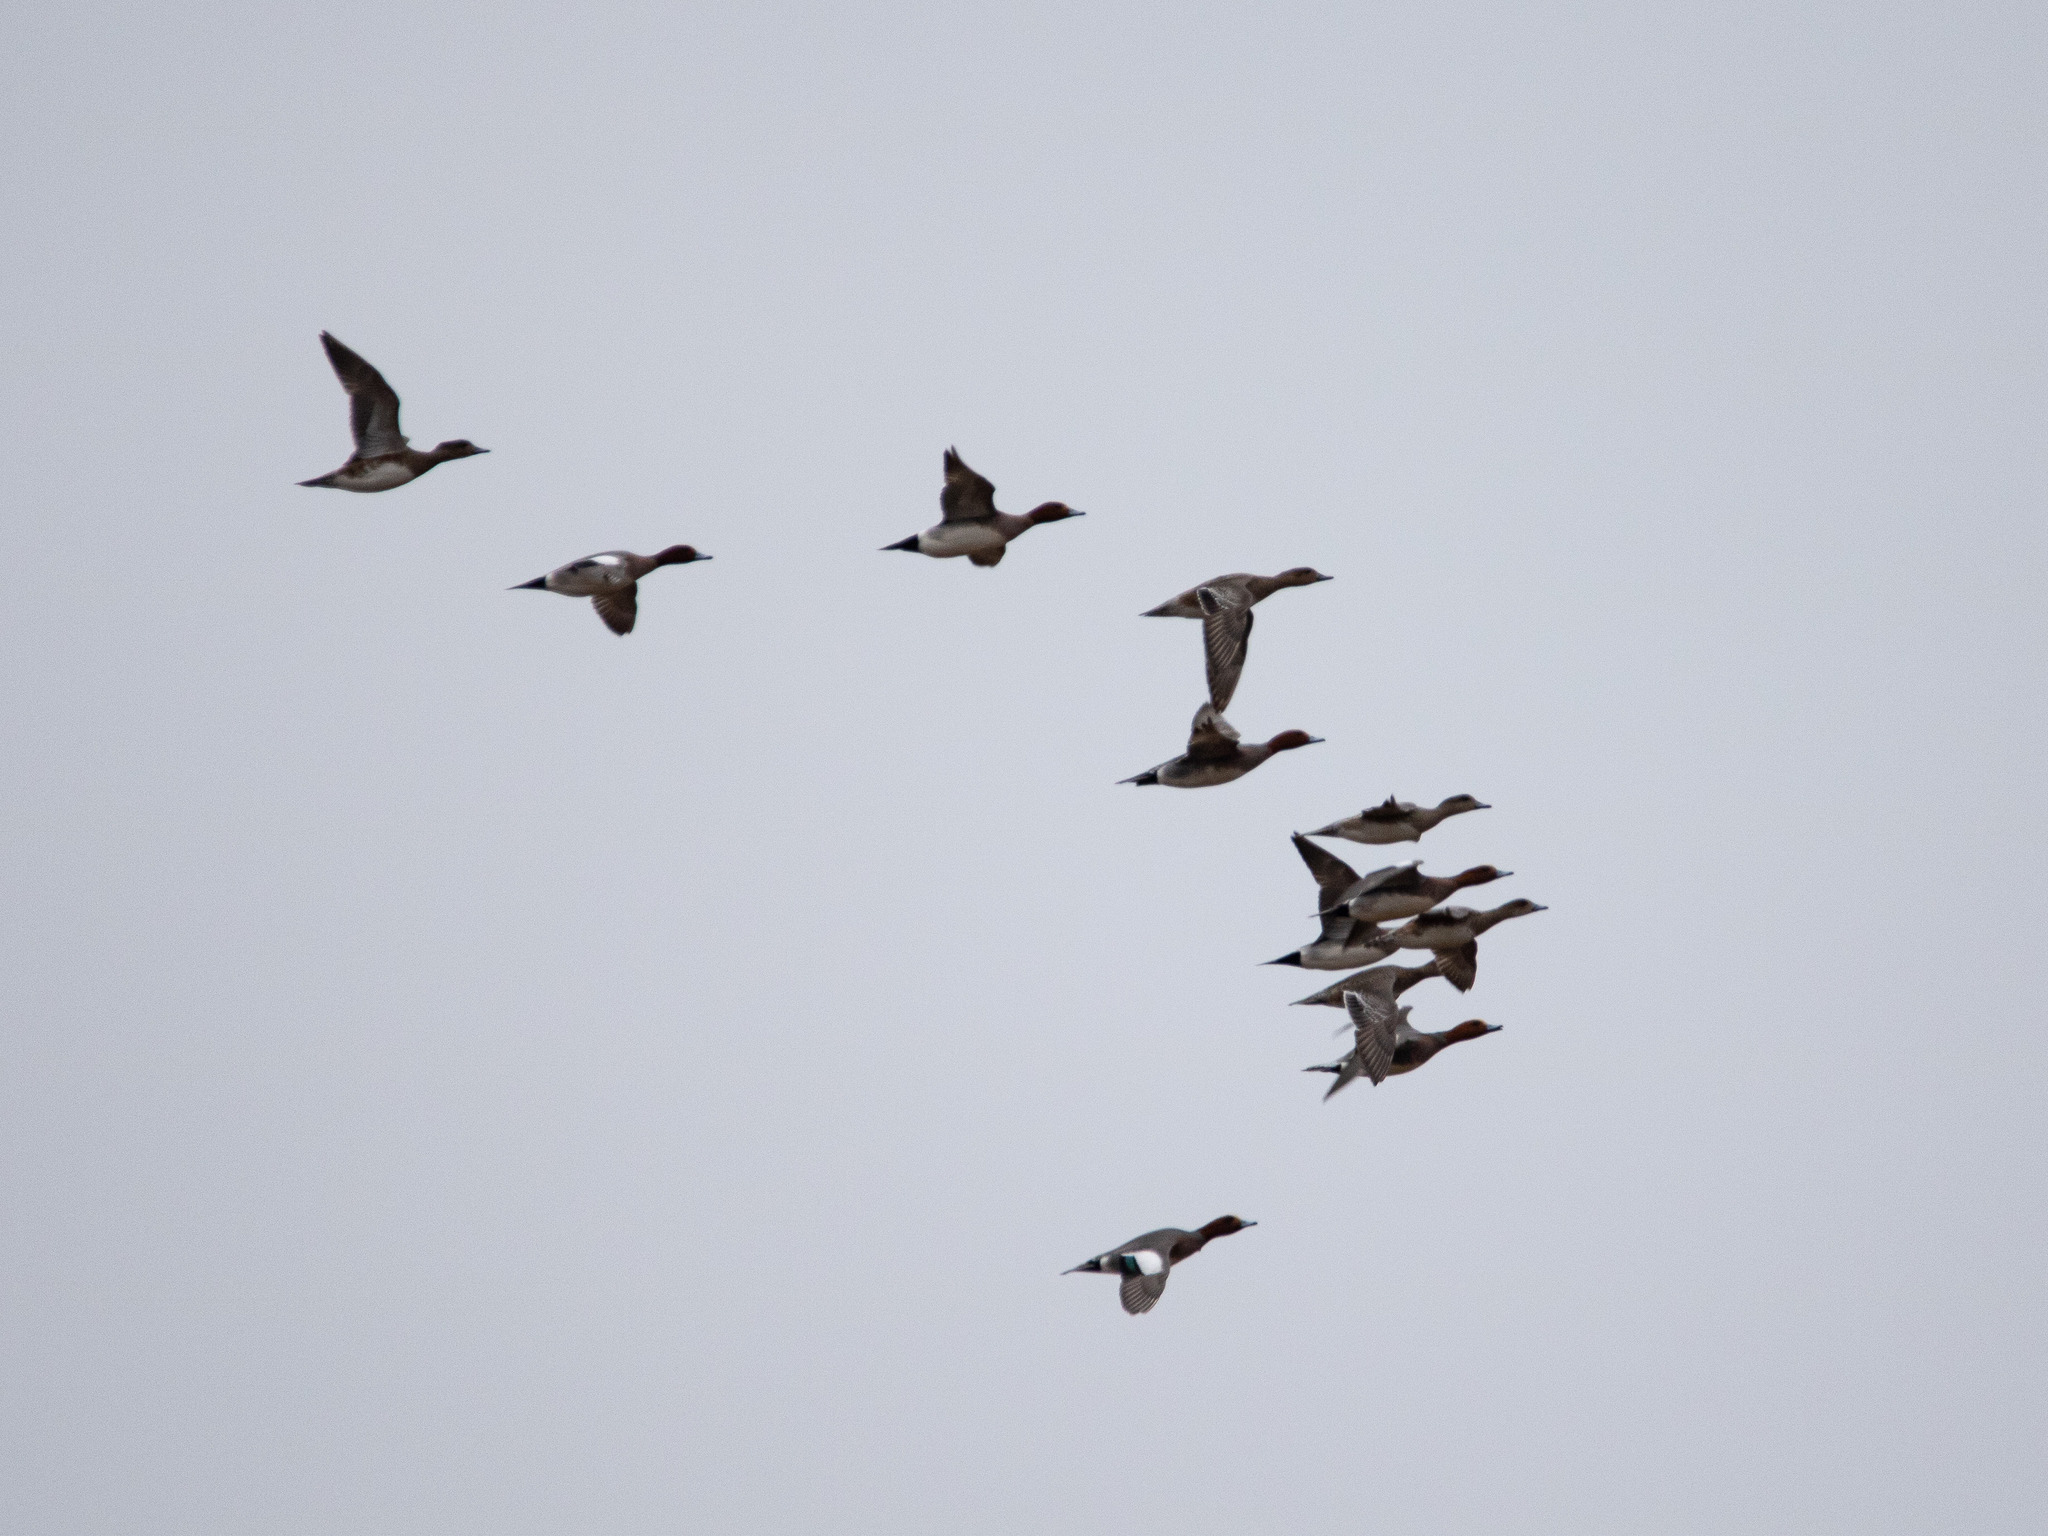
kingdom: Animalia
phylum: Chordata
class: Aves
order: Anseriformes
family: Anatidae
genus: Mareca
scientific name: Mareca penelope
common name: Eurasian wigeon
